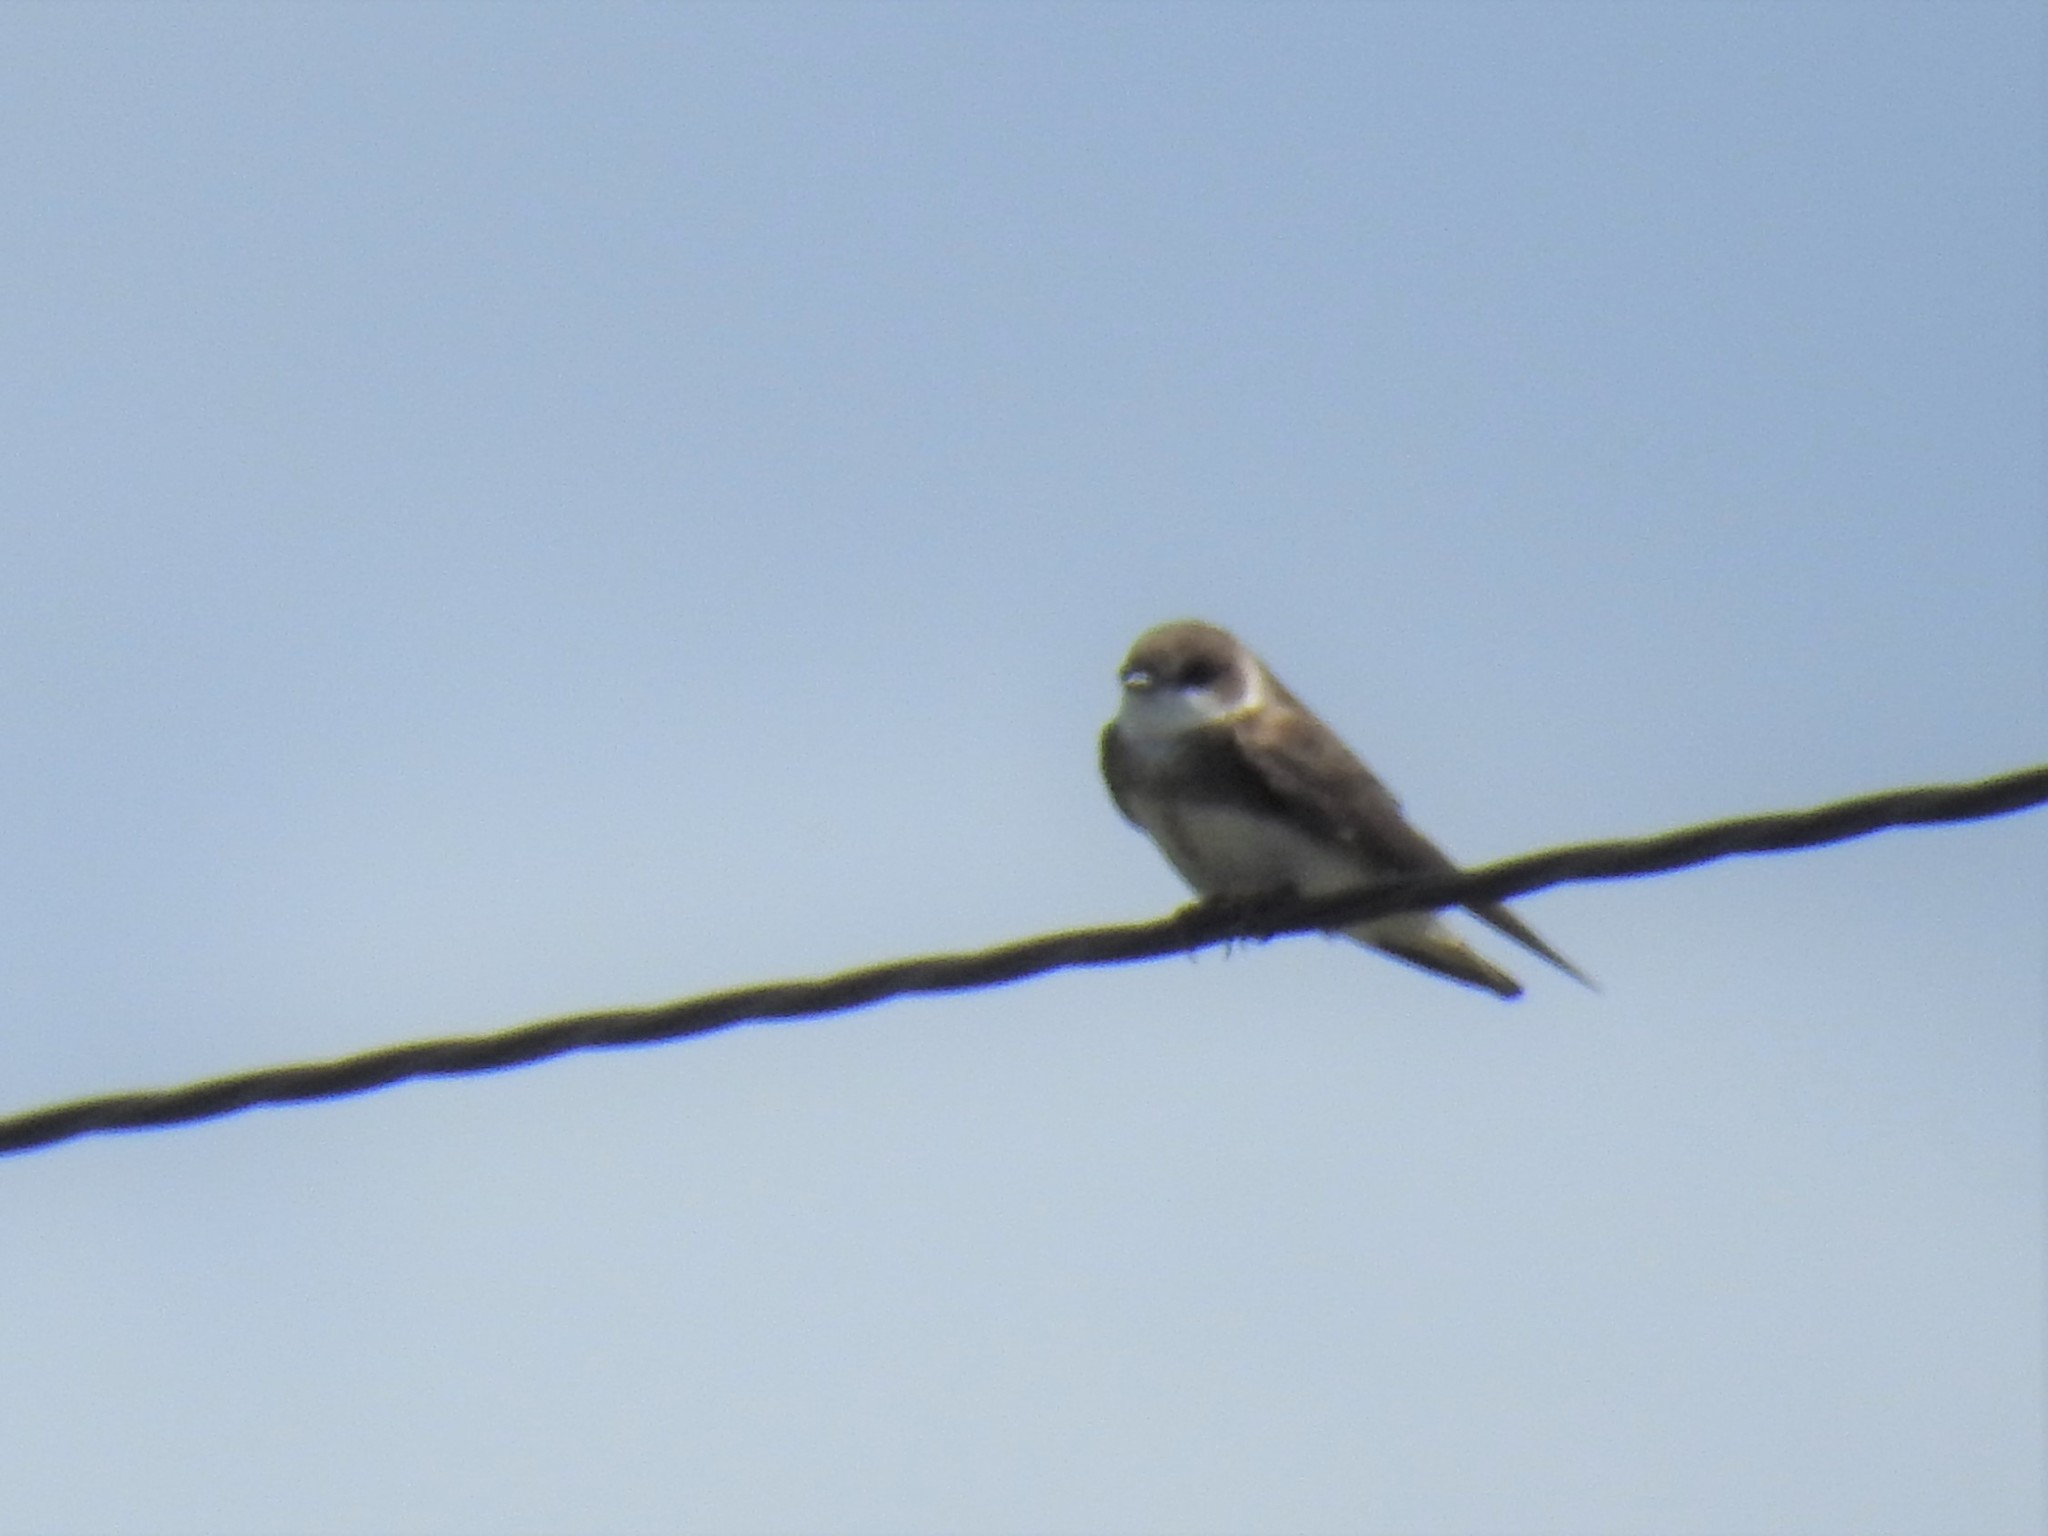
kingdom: Animalia
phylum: Chordata
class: Aves
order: Passeriformes
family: Hirundinidae
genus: Riparia
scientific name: Riparia riparia
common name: Sand martin
